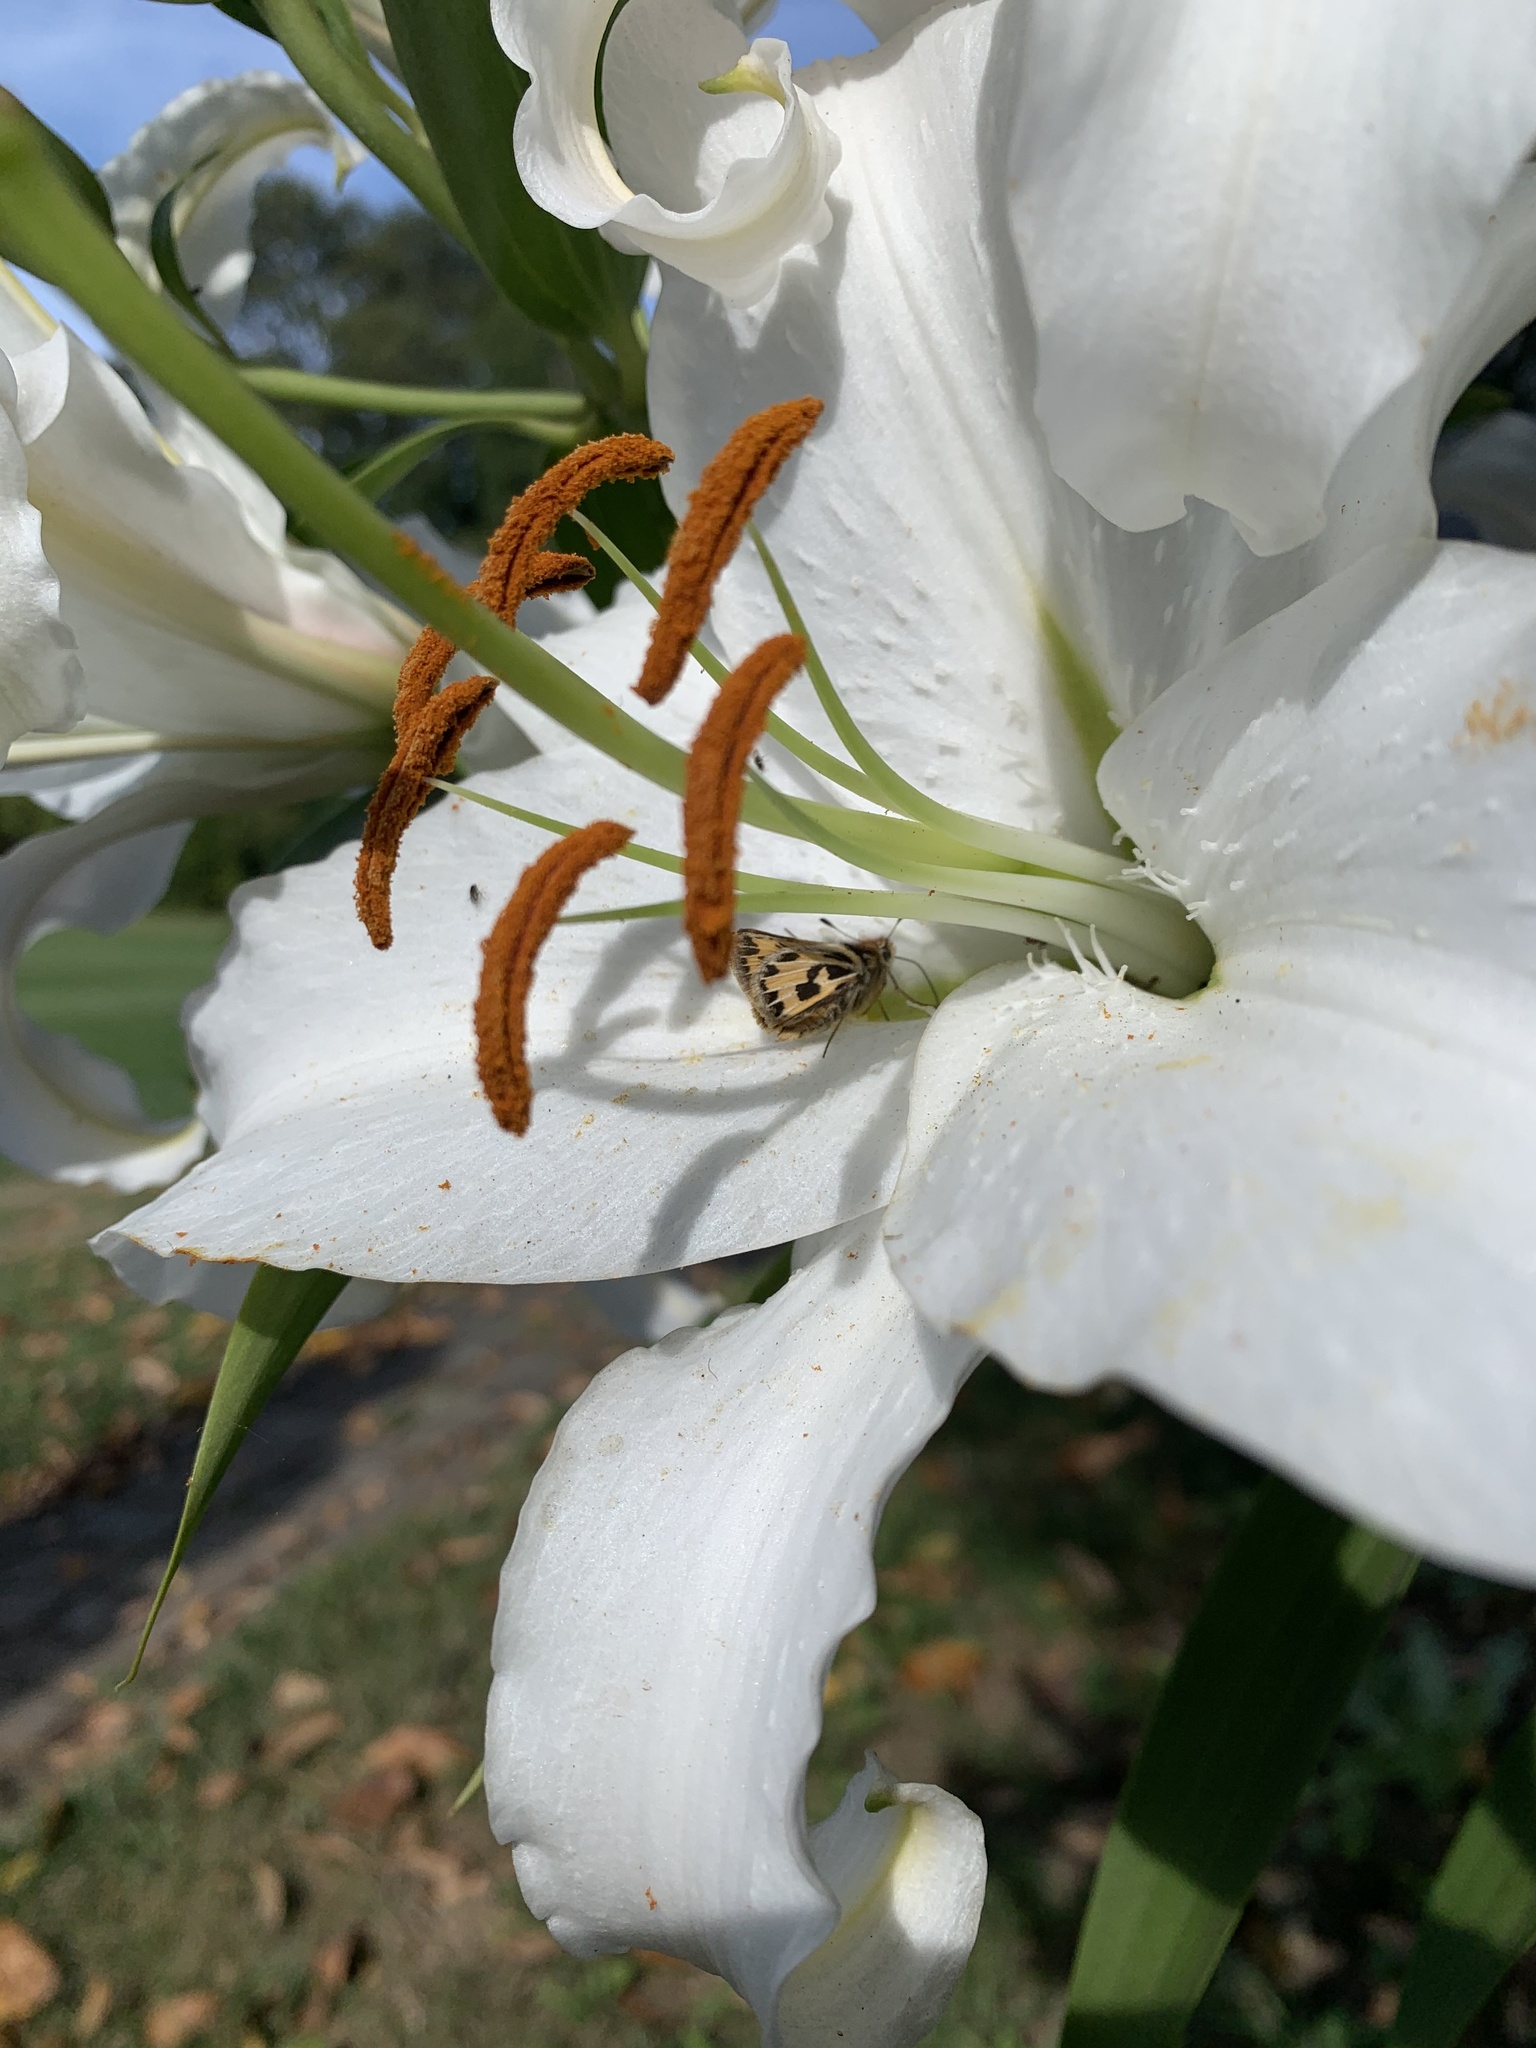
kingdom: Animalia
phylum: Arthropoda
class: Insecta
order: Lepidoptera
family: Hesperiidae
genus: Hylephila
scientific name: Hylephila fasciolata
